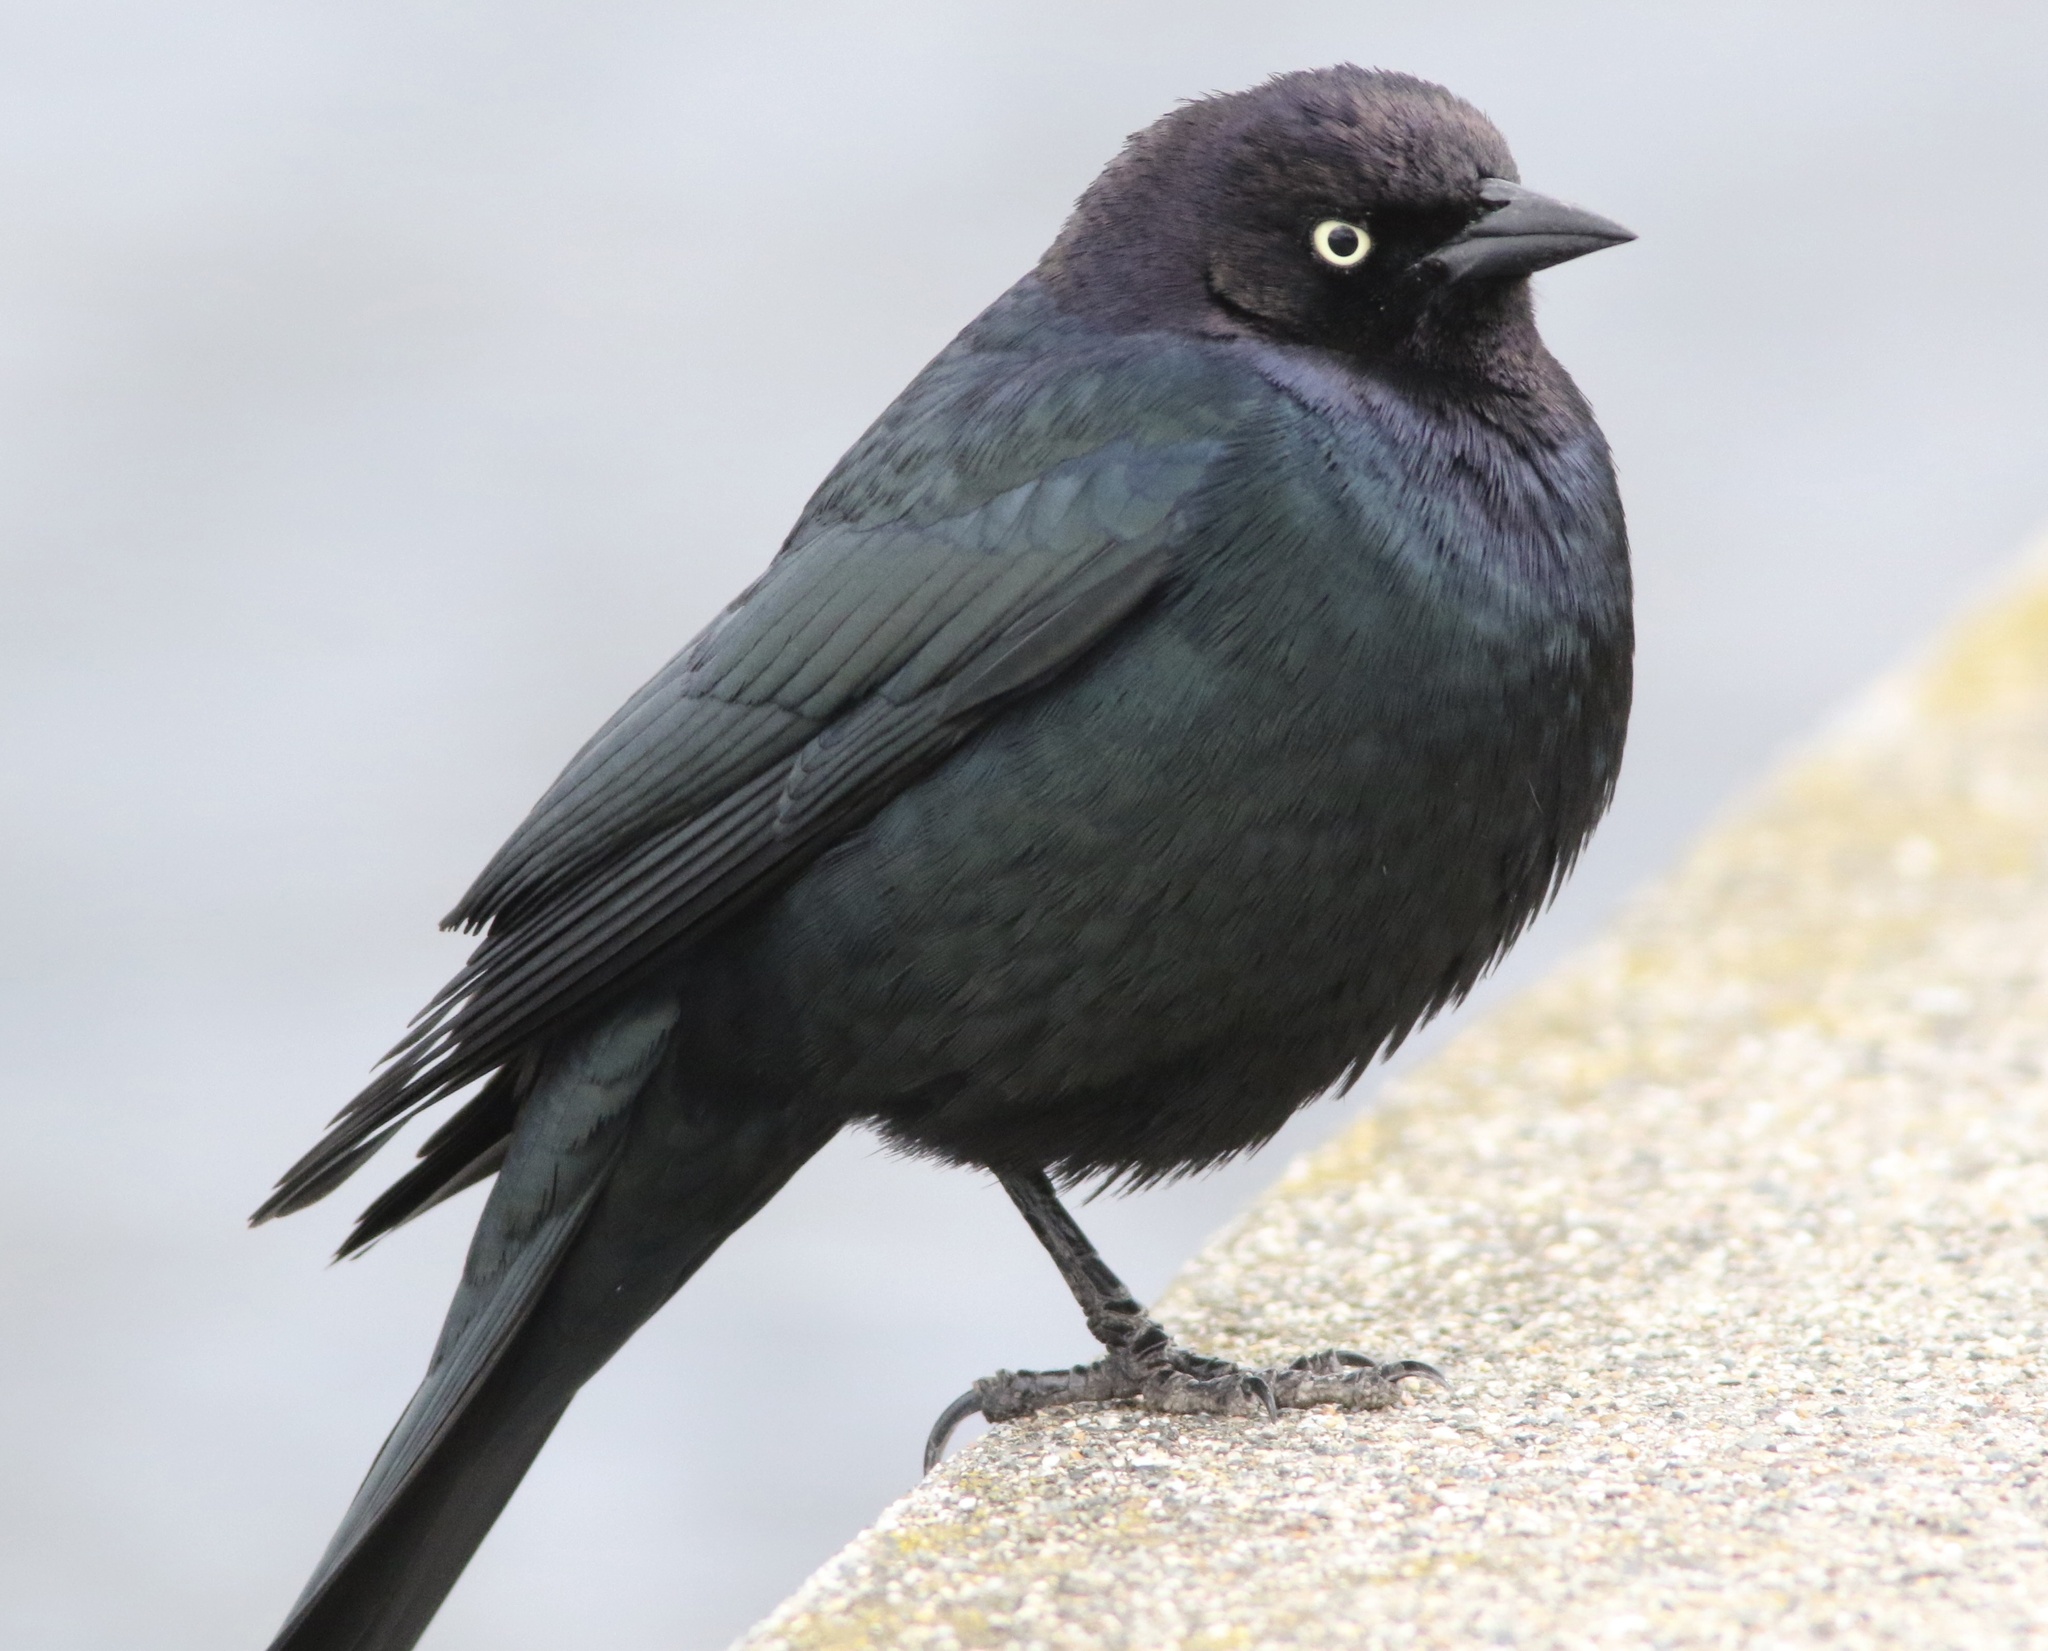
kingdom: Animalia
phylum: Chordata
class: Aves
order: Passeriformes
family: Icteridae
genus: Euphagus
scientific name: Euphagus cyanocephalus
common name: Brewer's blackbird
